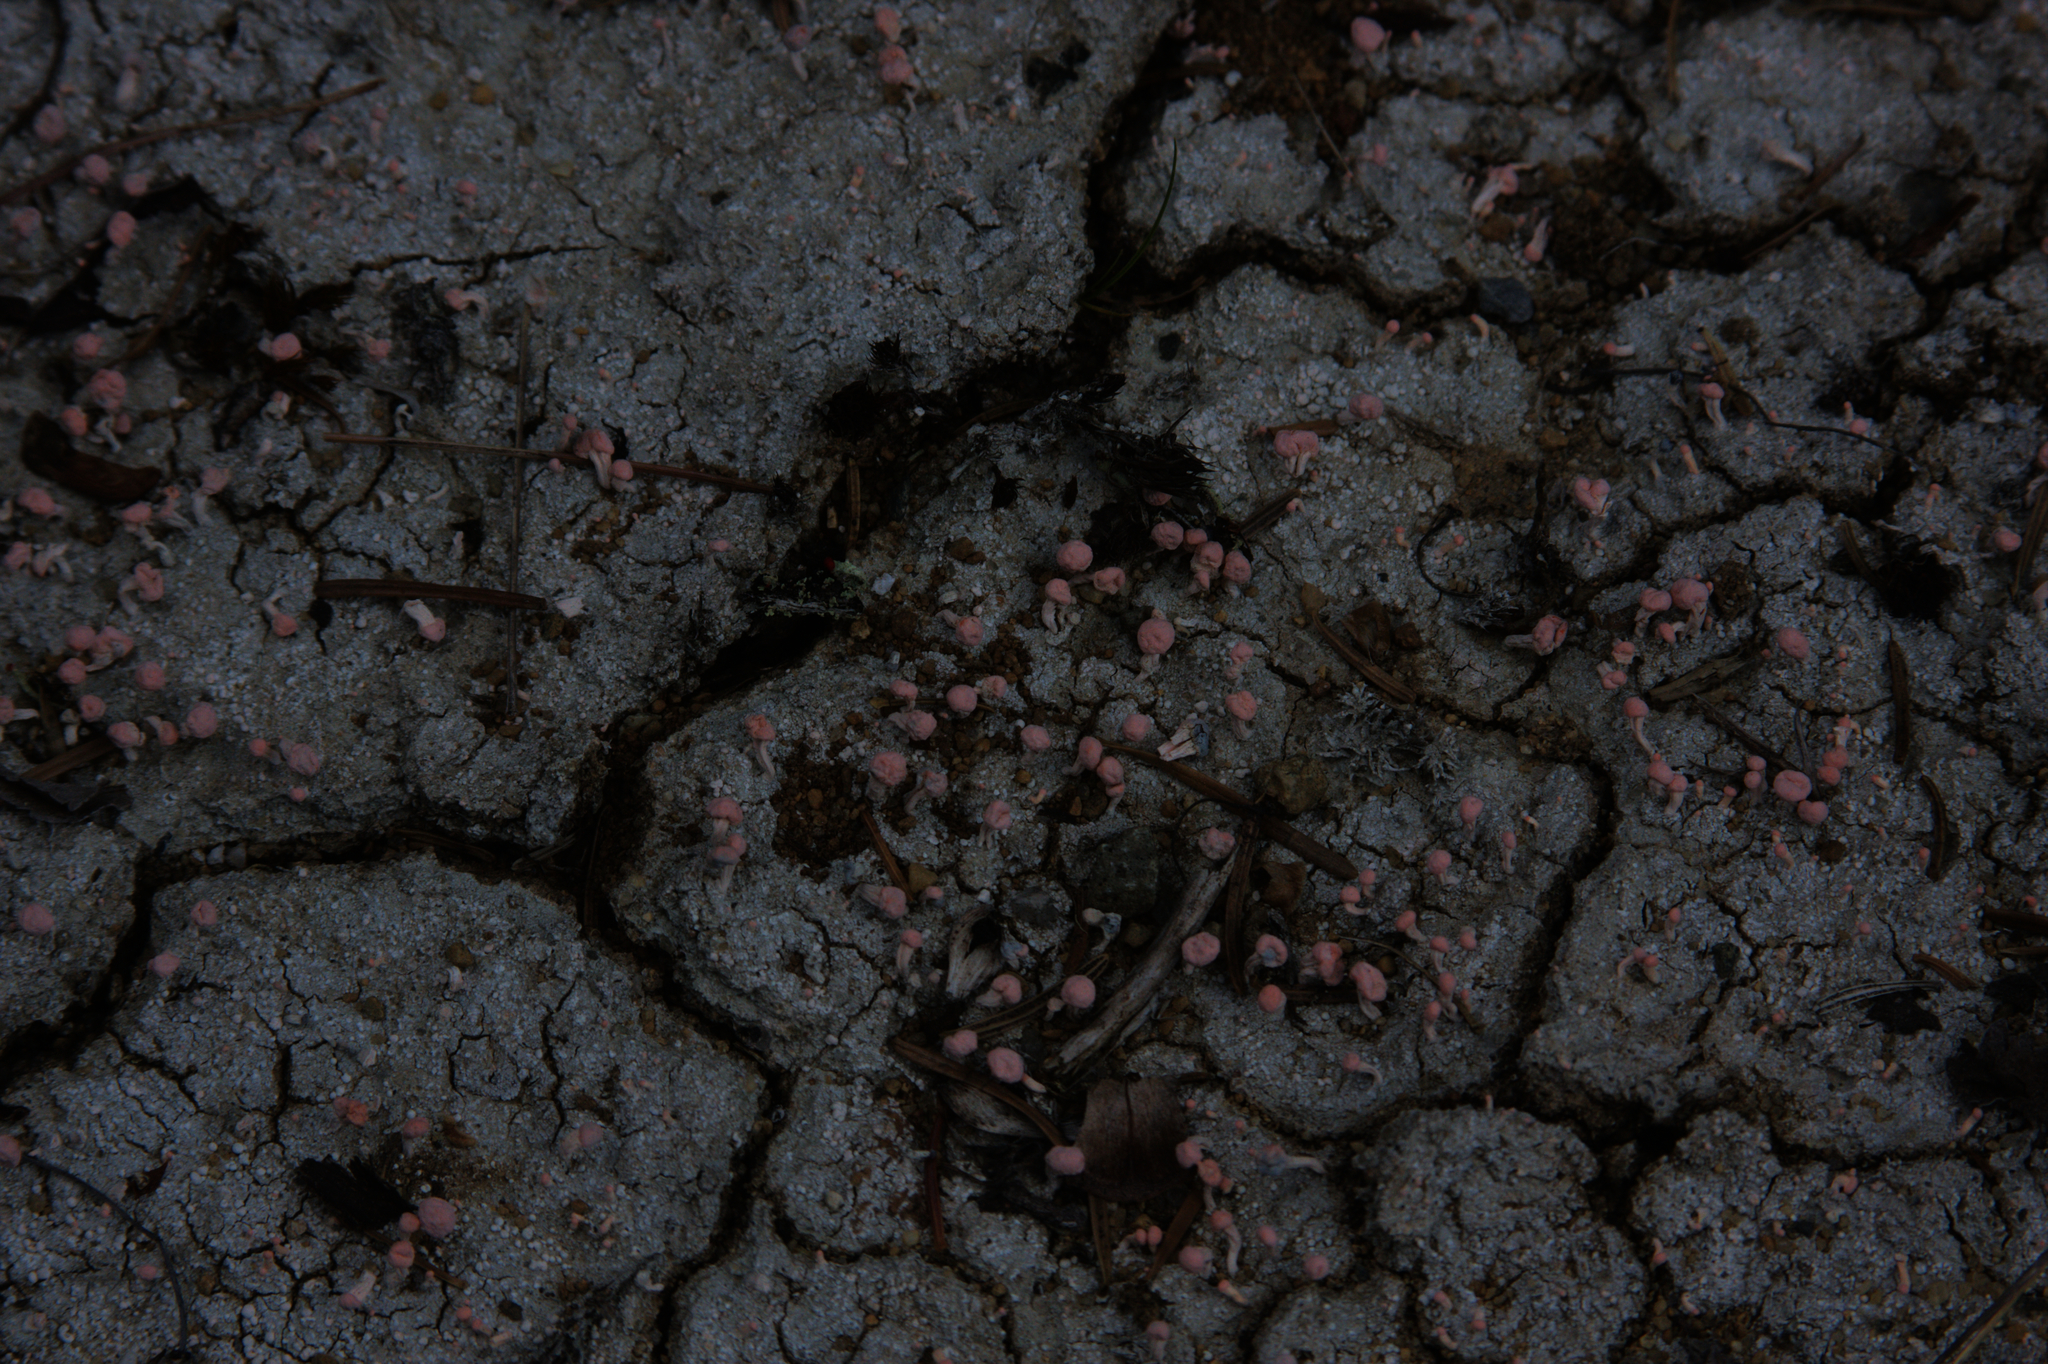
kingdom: Fungi
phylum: Ascomycota
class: Lecanoromycetes
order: Pertusariales
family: Icmadophilaceae
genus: Dibaeis
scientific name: Dibaeis baeomyces
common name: Pink earth lichen
